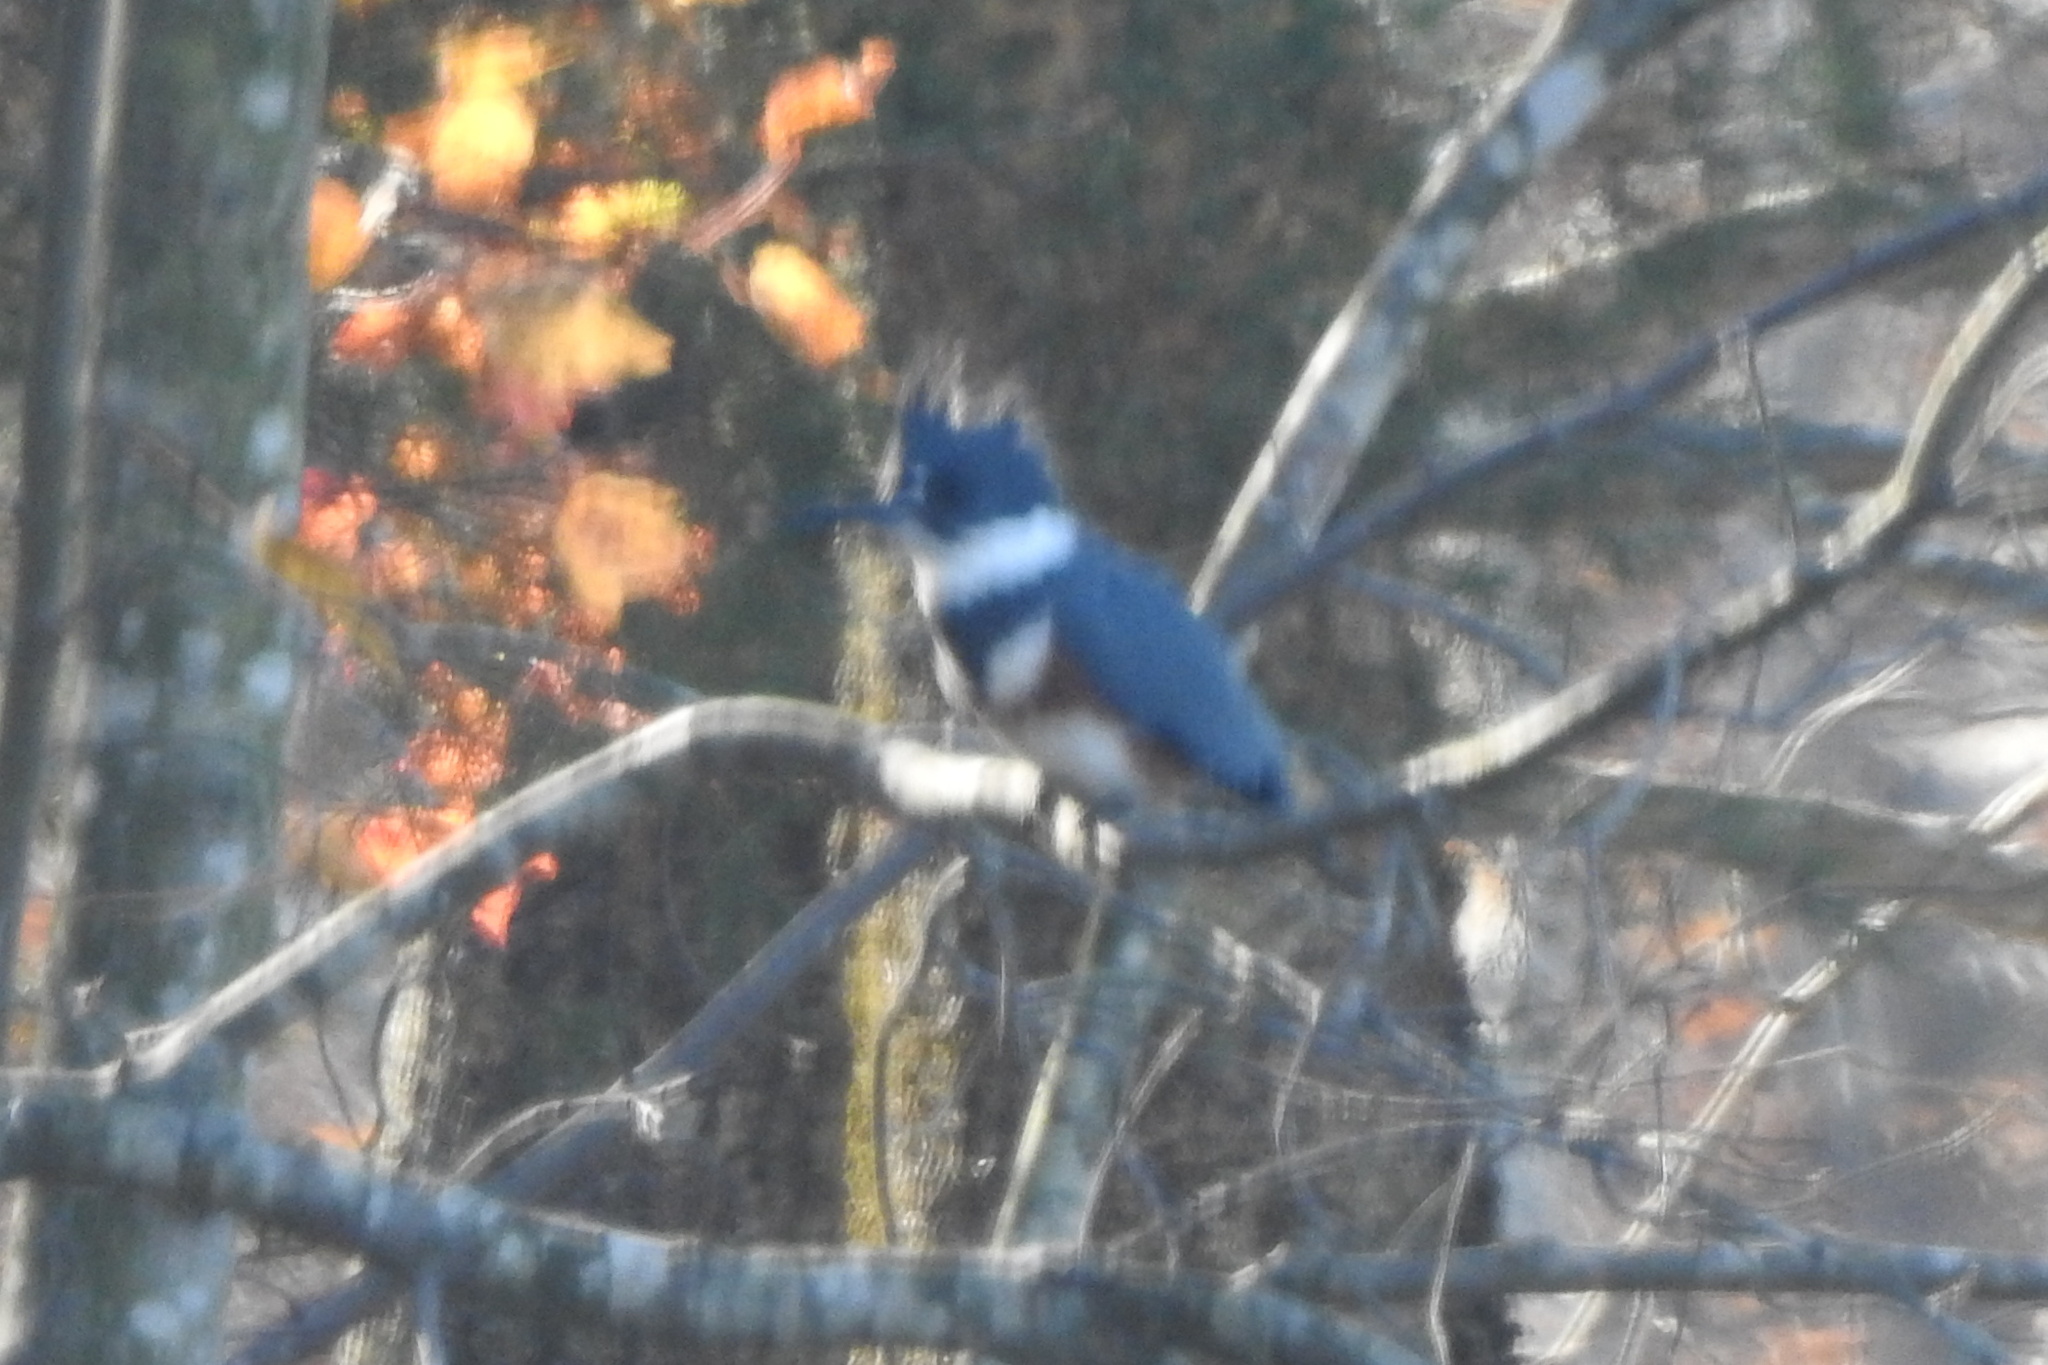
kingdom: Animalia
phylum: Chordata
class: Aves
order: Coraciiformes
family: Alcedinidae
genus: Megaceryle
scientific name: Megaceryle alcyon
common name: Belted kingfisher
